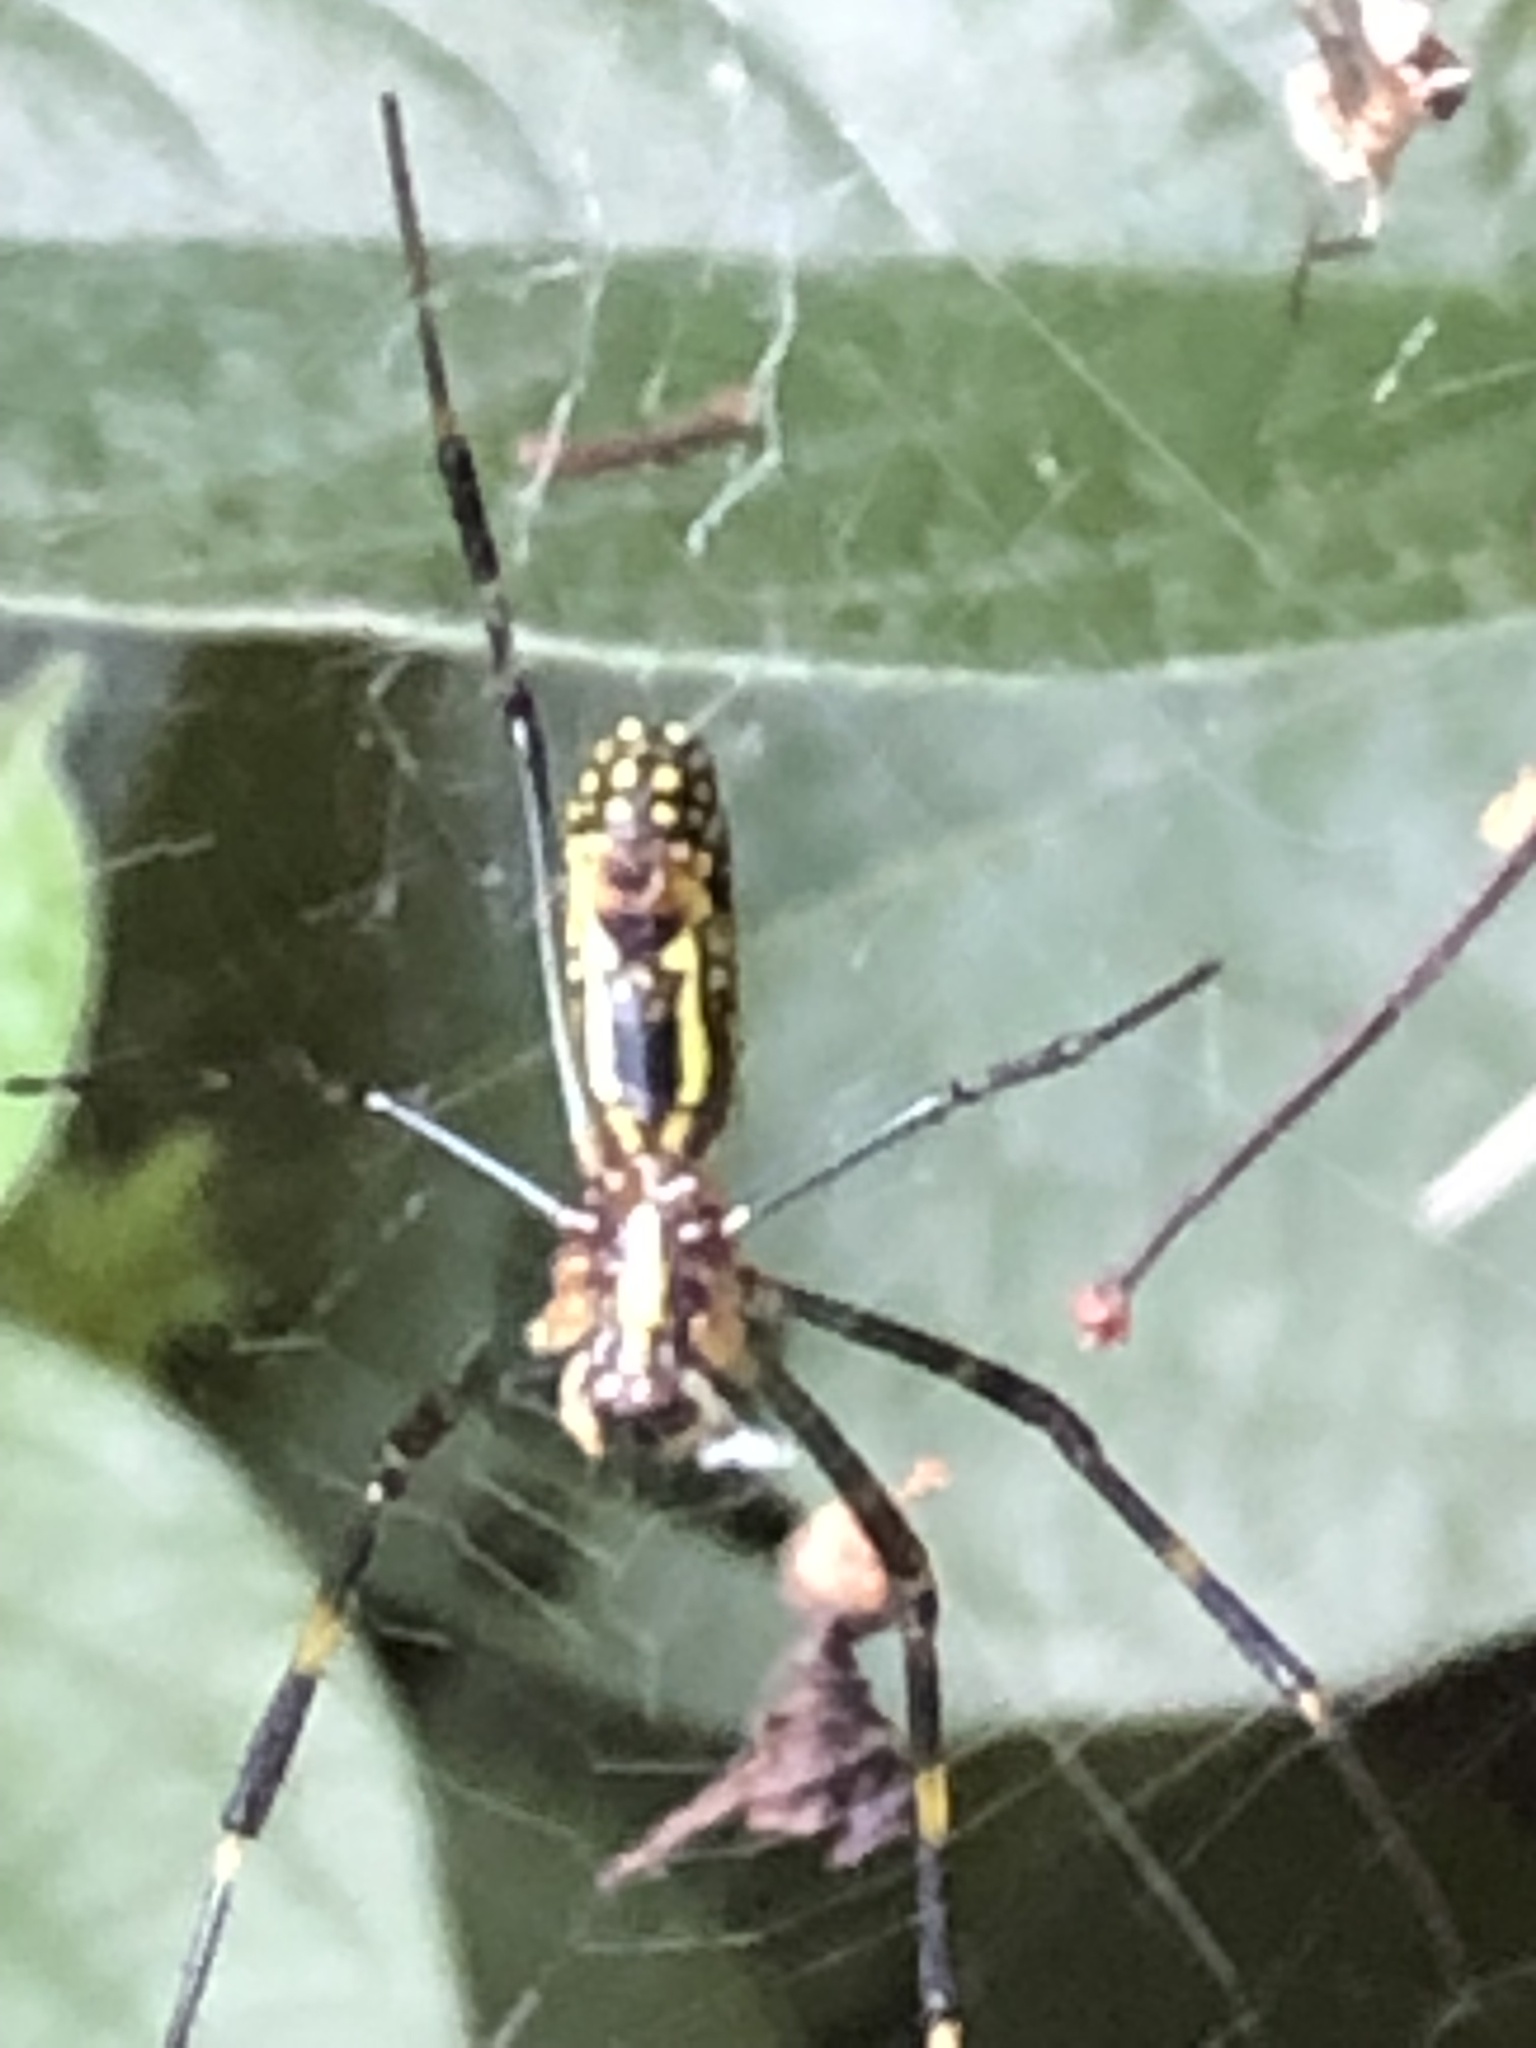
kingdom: Animalia
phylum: Arthropoda
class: Arachnida
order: Araneae
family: Araneidae
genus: Trichonephila
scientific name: Trichonephila clavata
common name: Jorō spider
